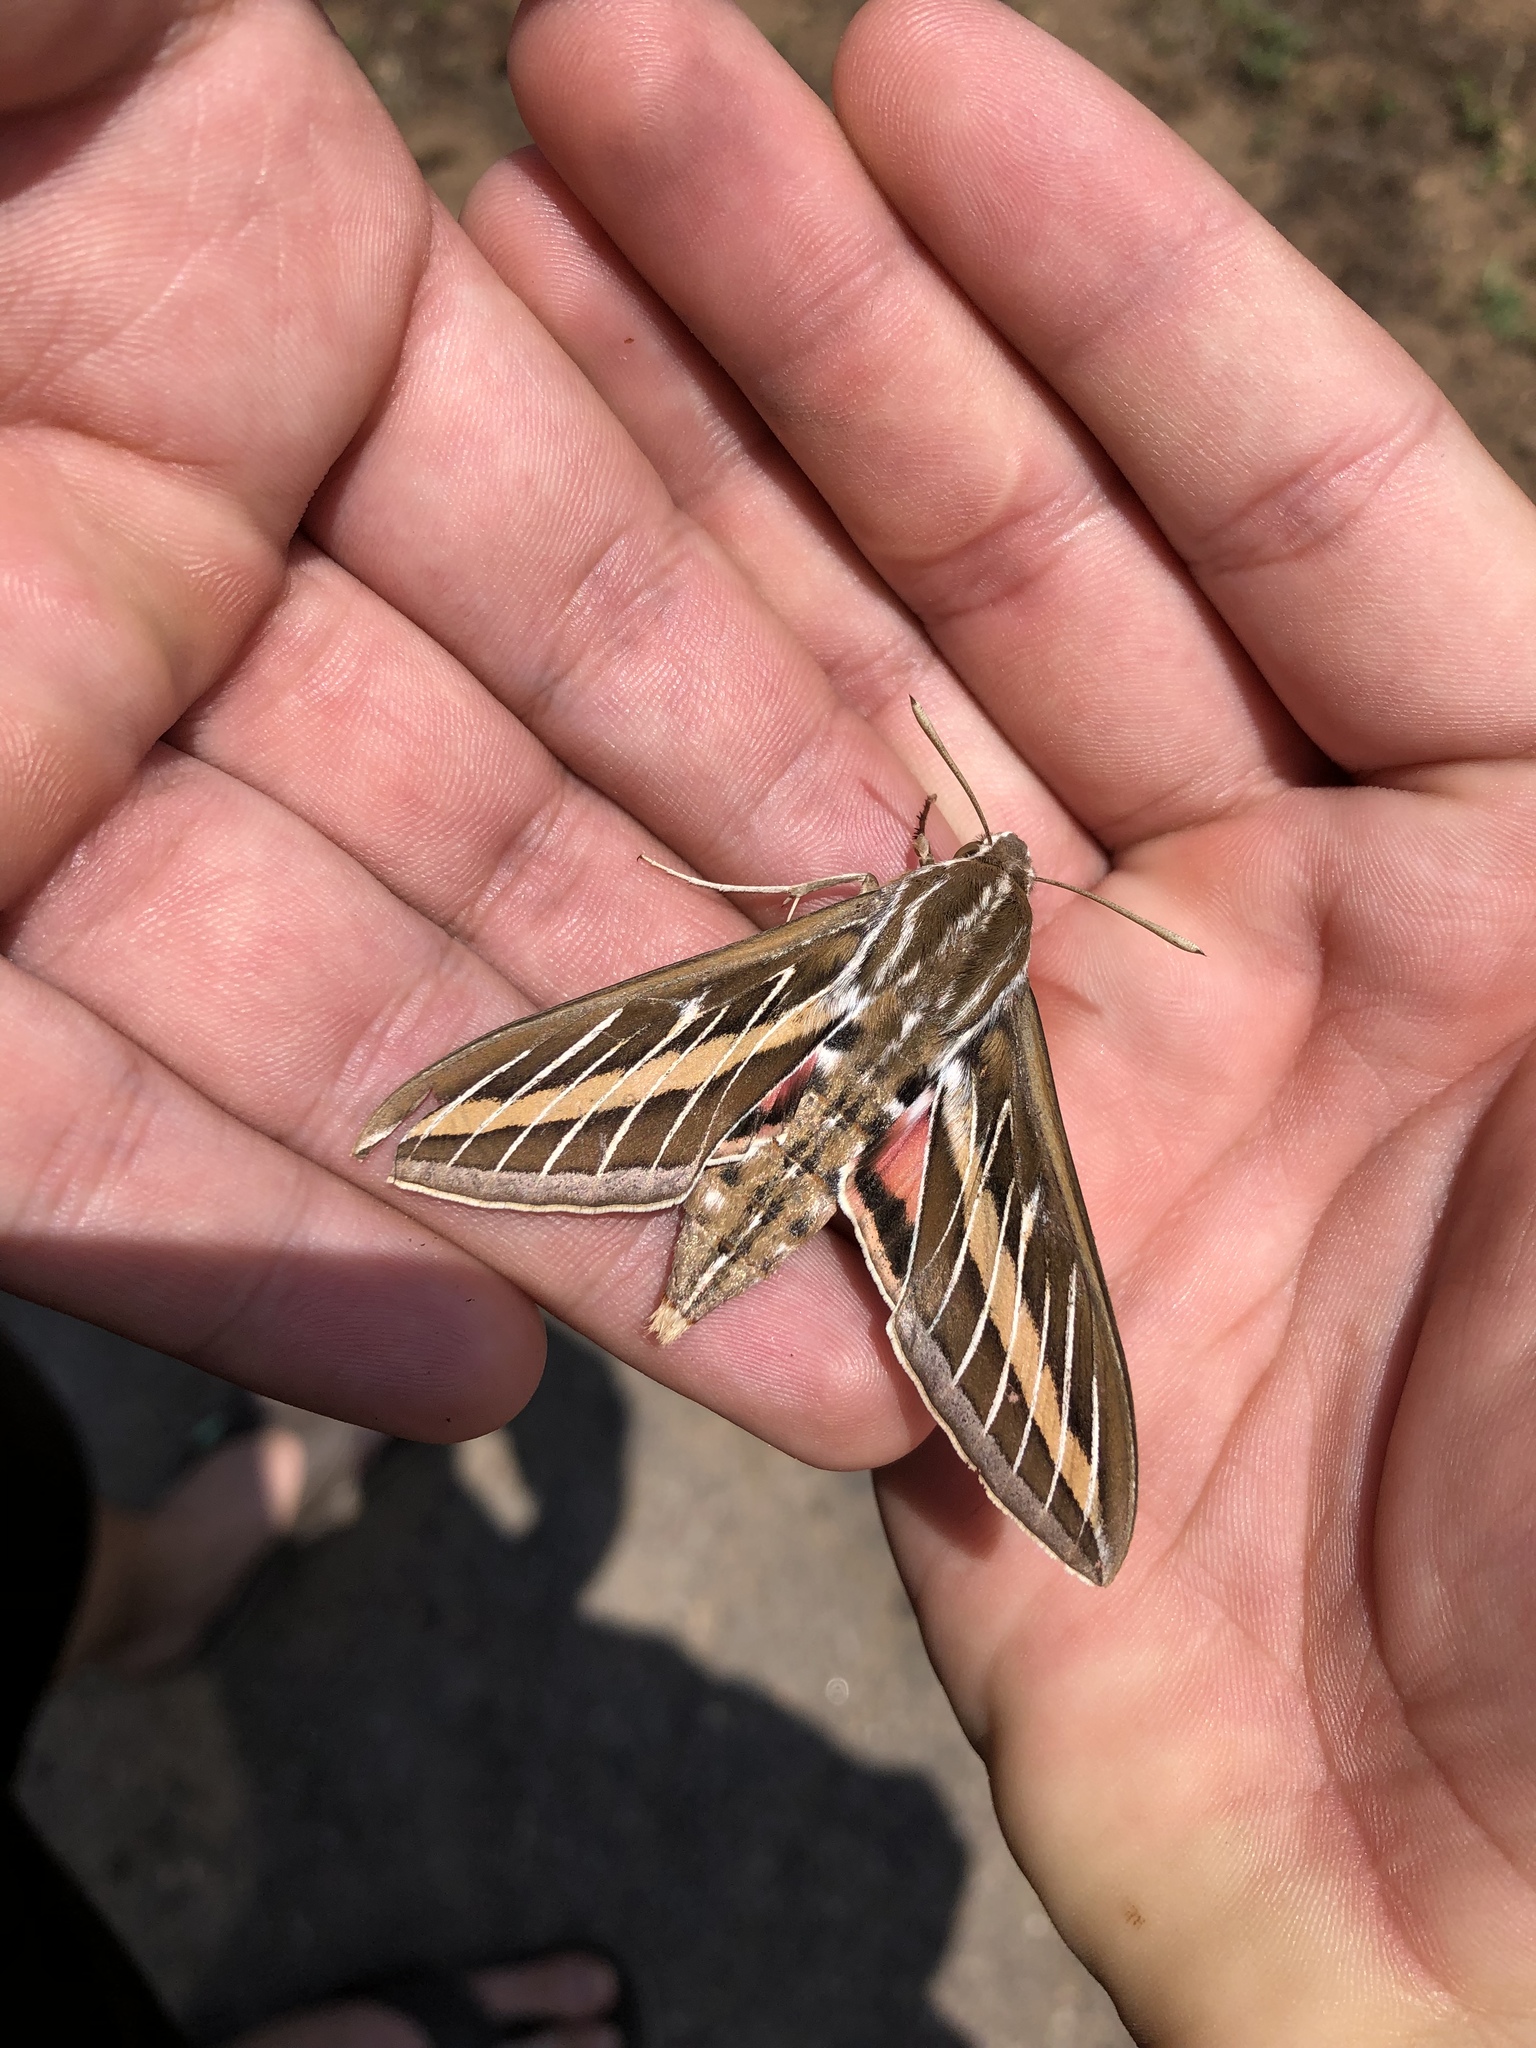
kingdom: Animalia
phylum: Arthropoda
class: Insecta
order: Lepidoptera
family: Sphingidae
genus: Hyles
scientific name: Hyles lineata
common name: White-lined sphinx
